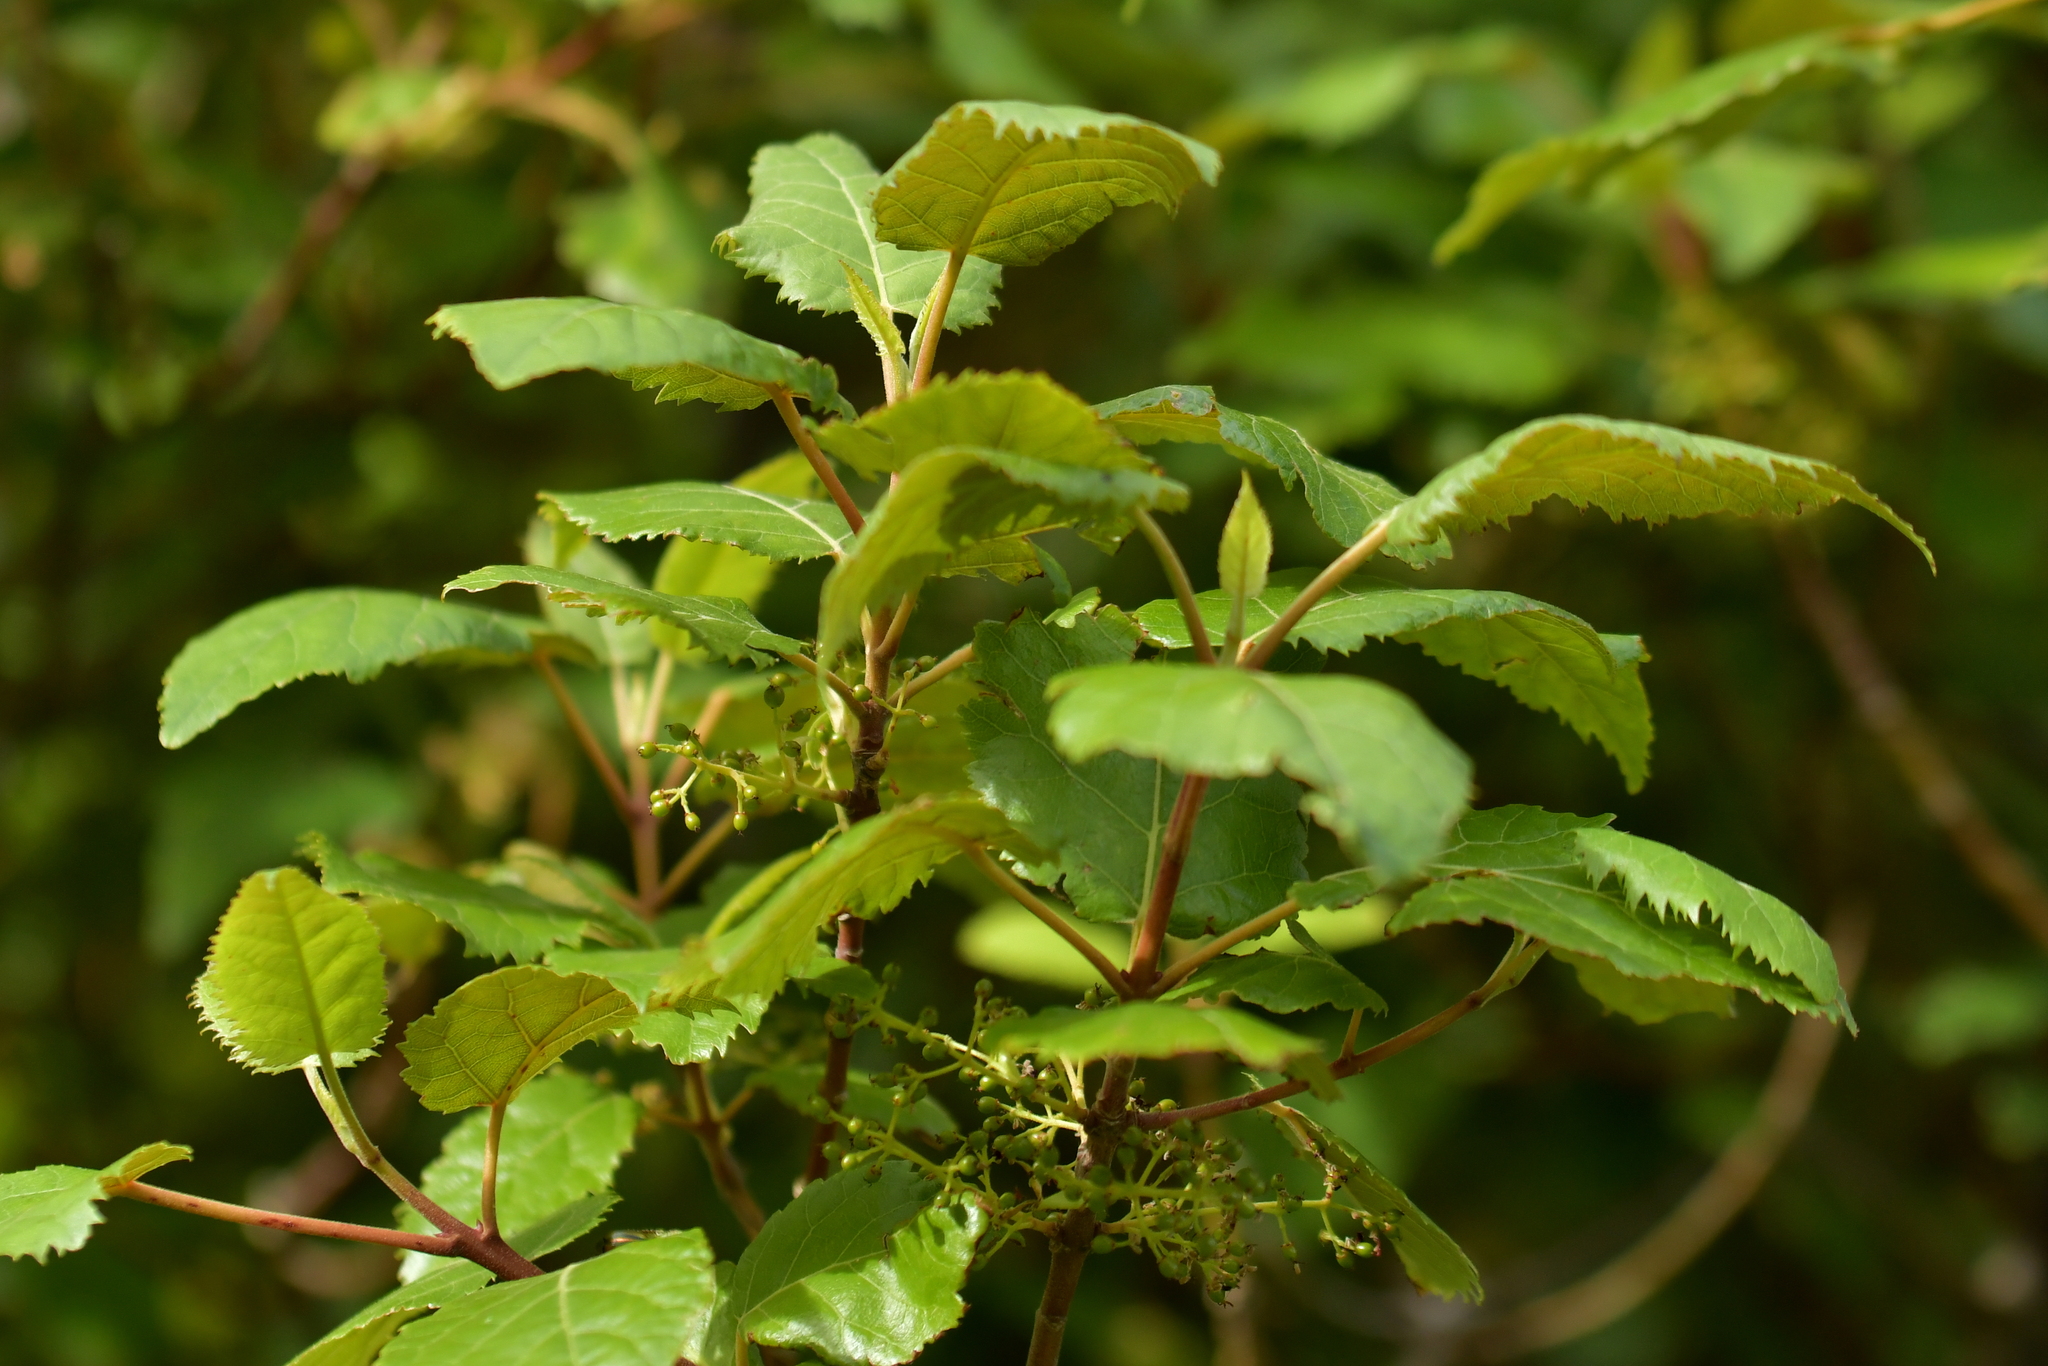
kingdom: Plantae
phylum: Tracheophyta
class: Magnoliopsida
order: Oxalidales
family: Elaeocarpaceae
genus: Aristotelia
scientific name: Aristotelia serrata
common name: New zealand wineberry
